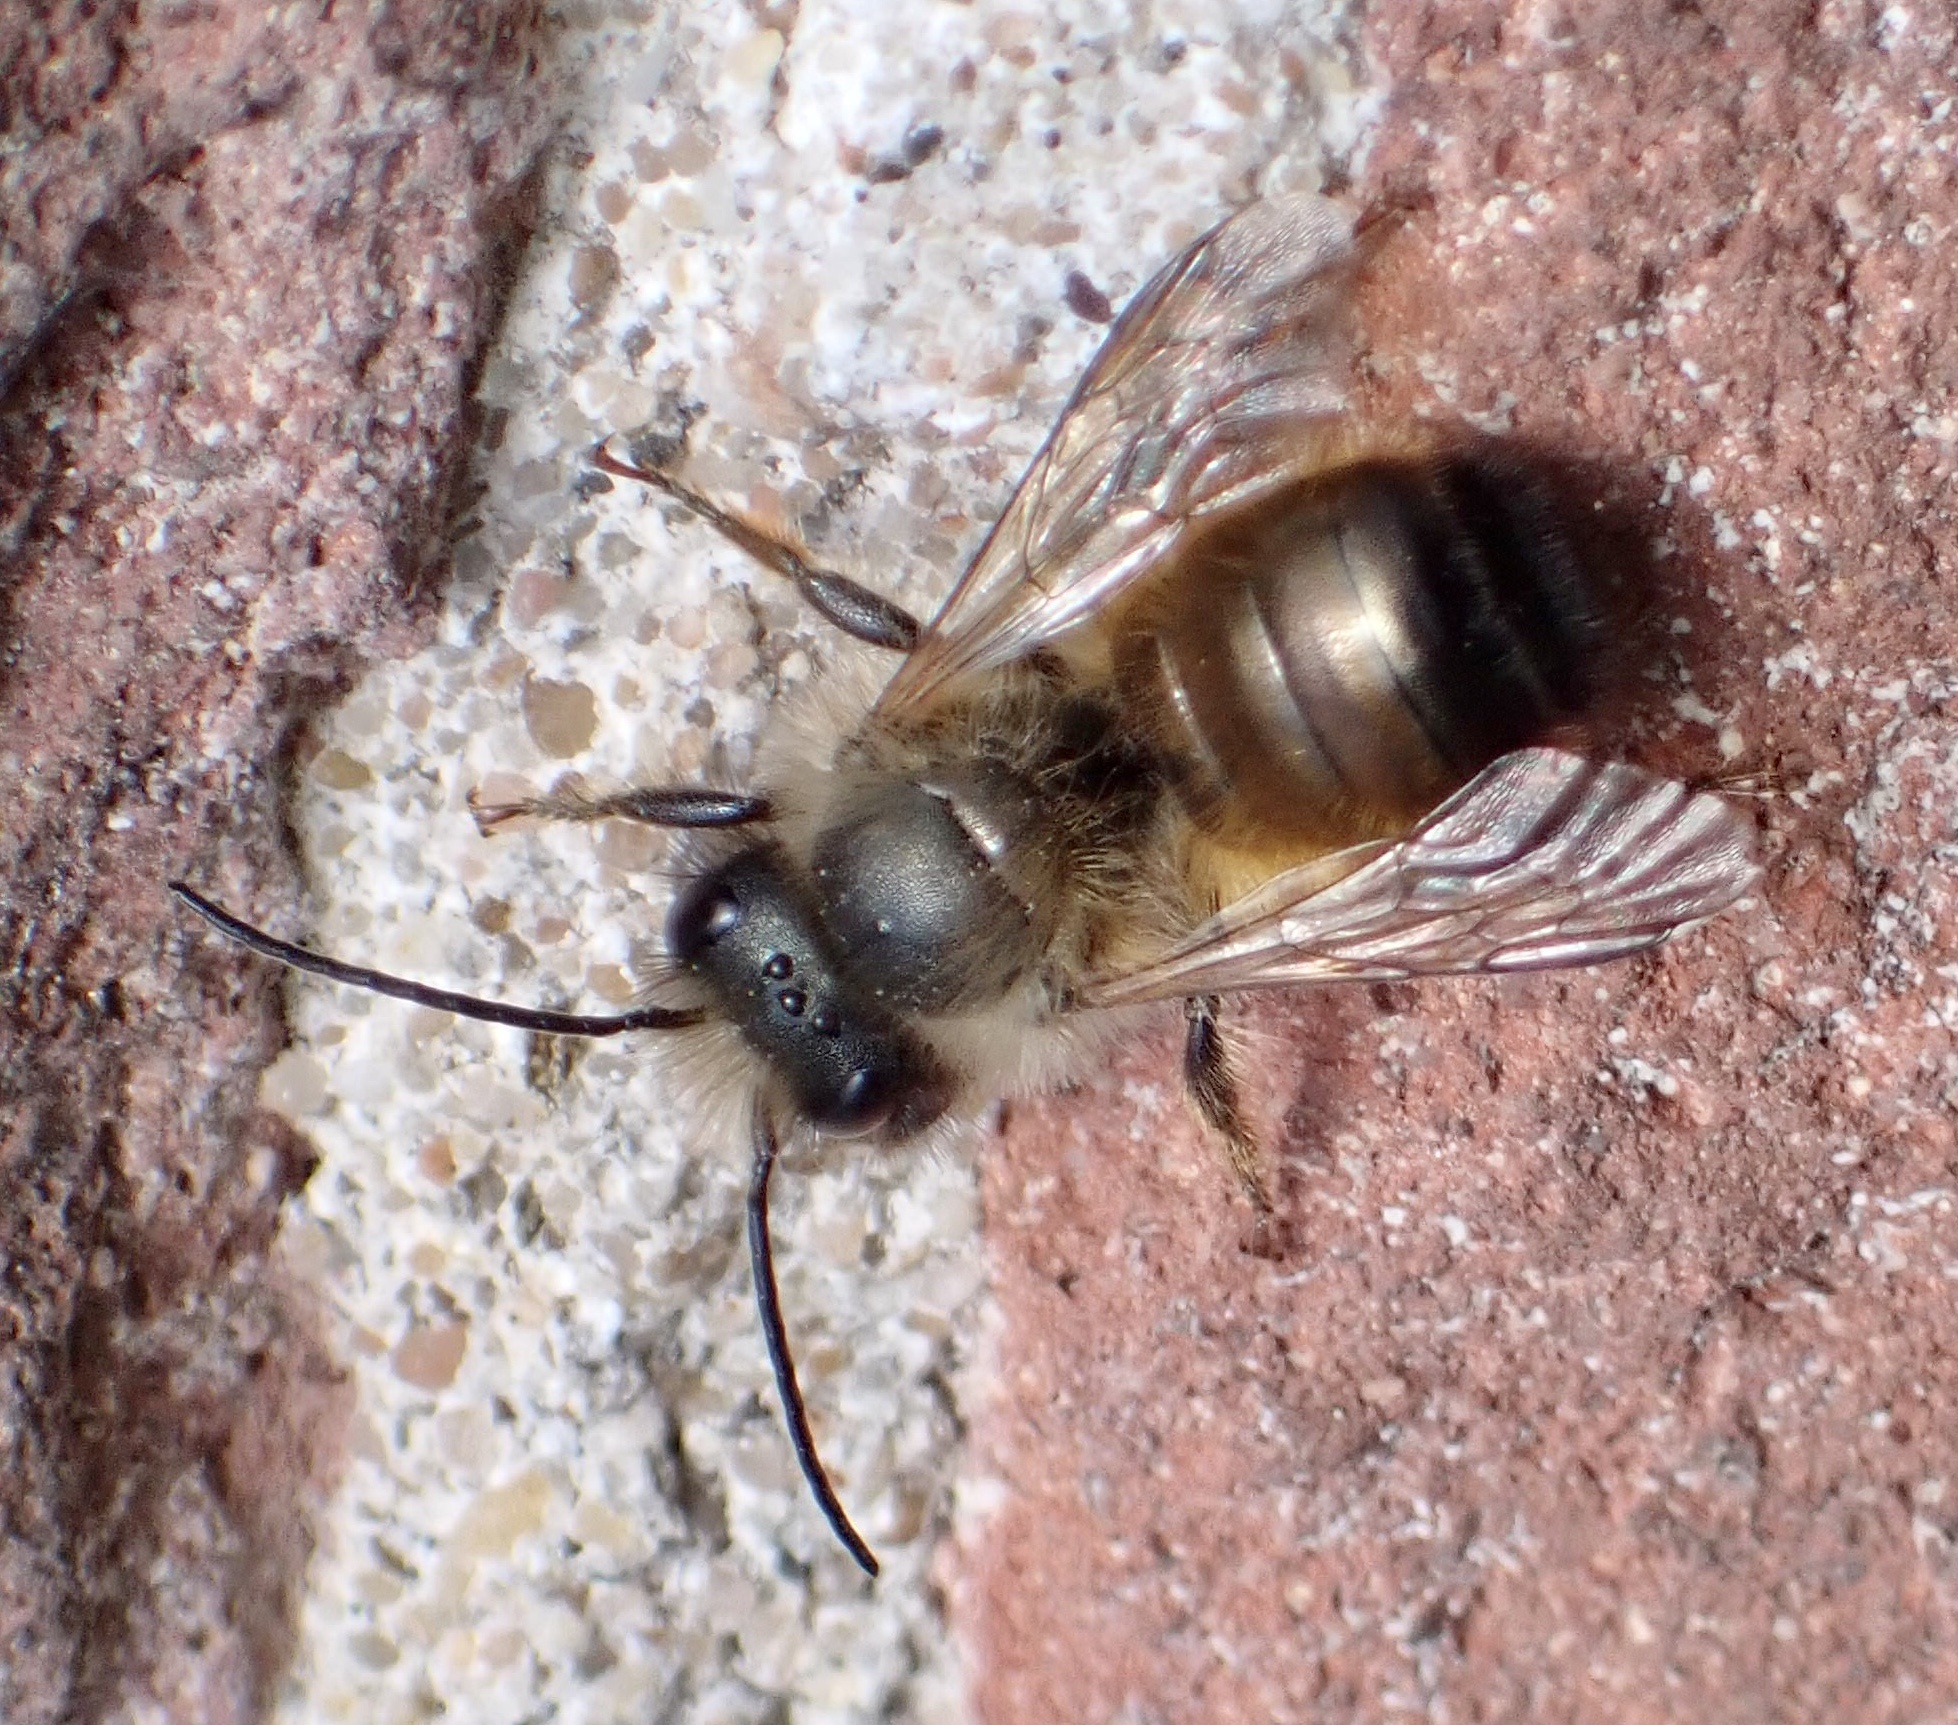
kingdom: Animalia
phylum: Arthropoda
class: Insecta
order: Hymenoptera
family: Megachilidae
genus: Osmia
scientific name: Osmia bicornis
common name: Red mason bee
